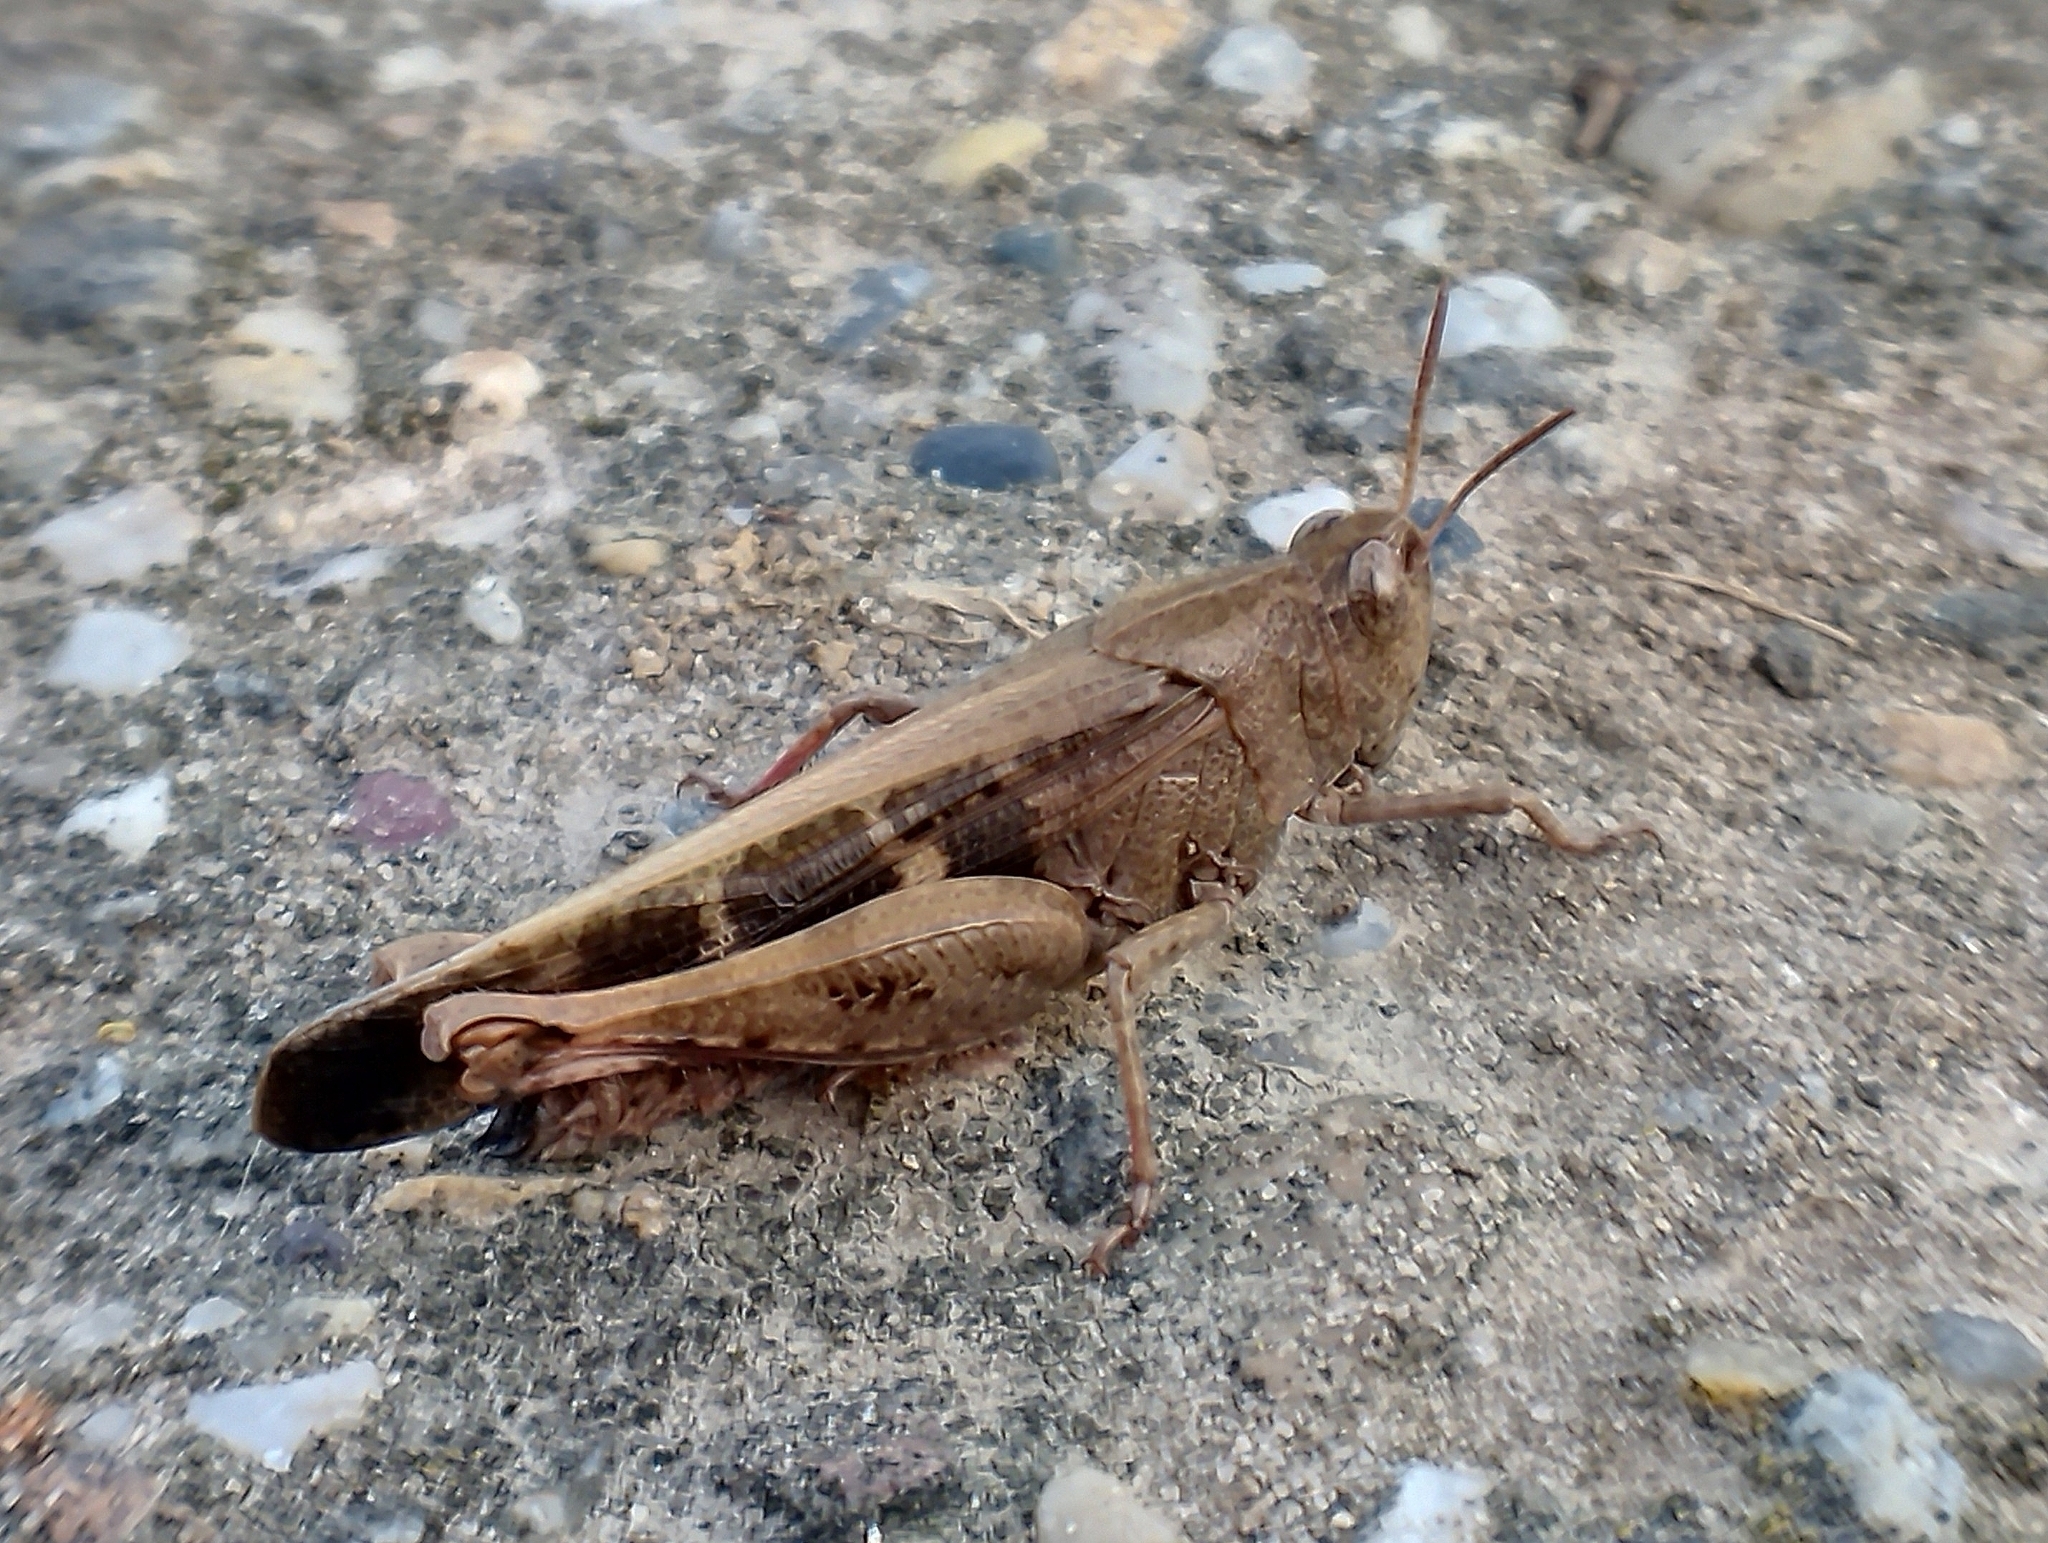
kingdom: Animalia
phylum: Arthropoda
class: Insecta
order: Orthoptera
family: Acrididae
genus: Aiolopus
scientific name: Aiolopus strepens
